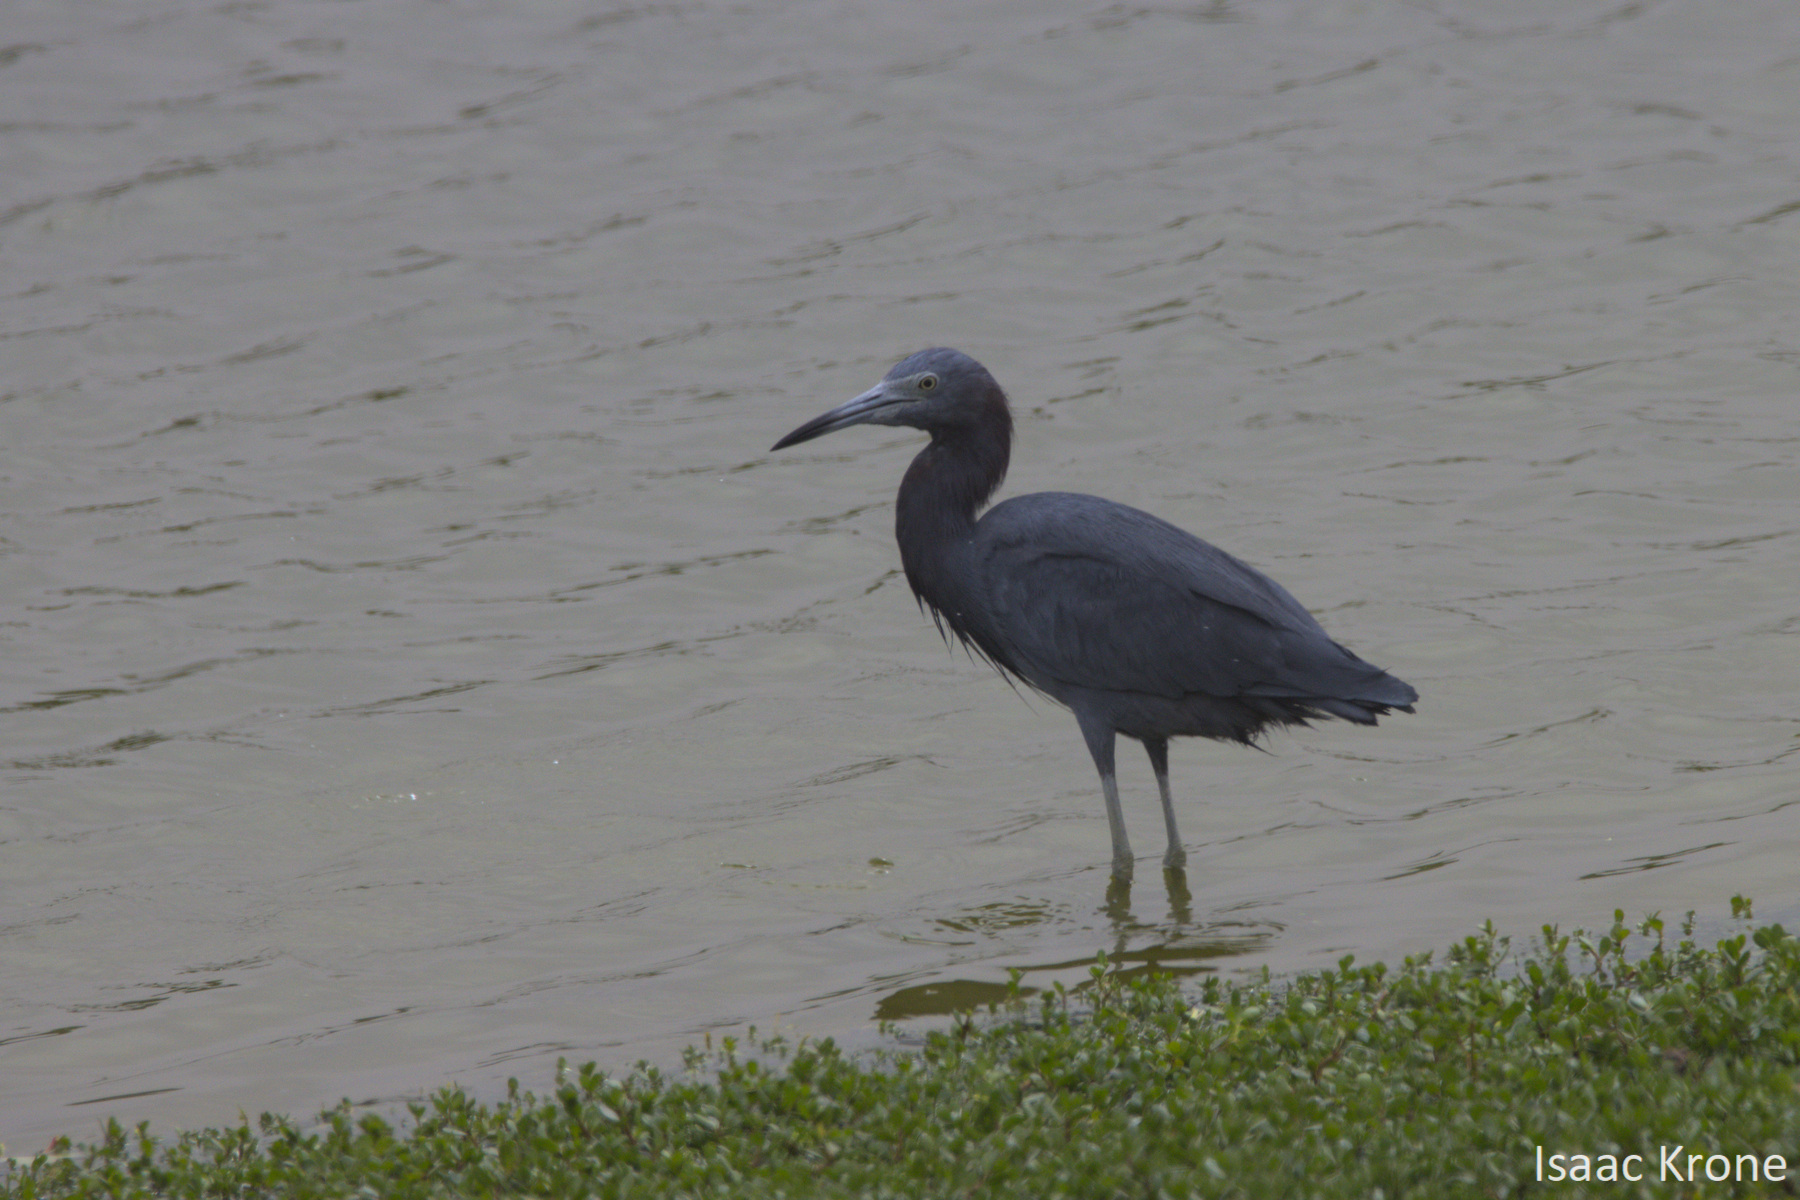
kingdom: Animalia
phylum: Chordata
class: Aves
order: Pelecaniformes
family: Ardeidae
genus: Egretta
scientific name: Egretta caerulea
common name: Little blue heron
